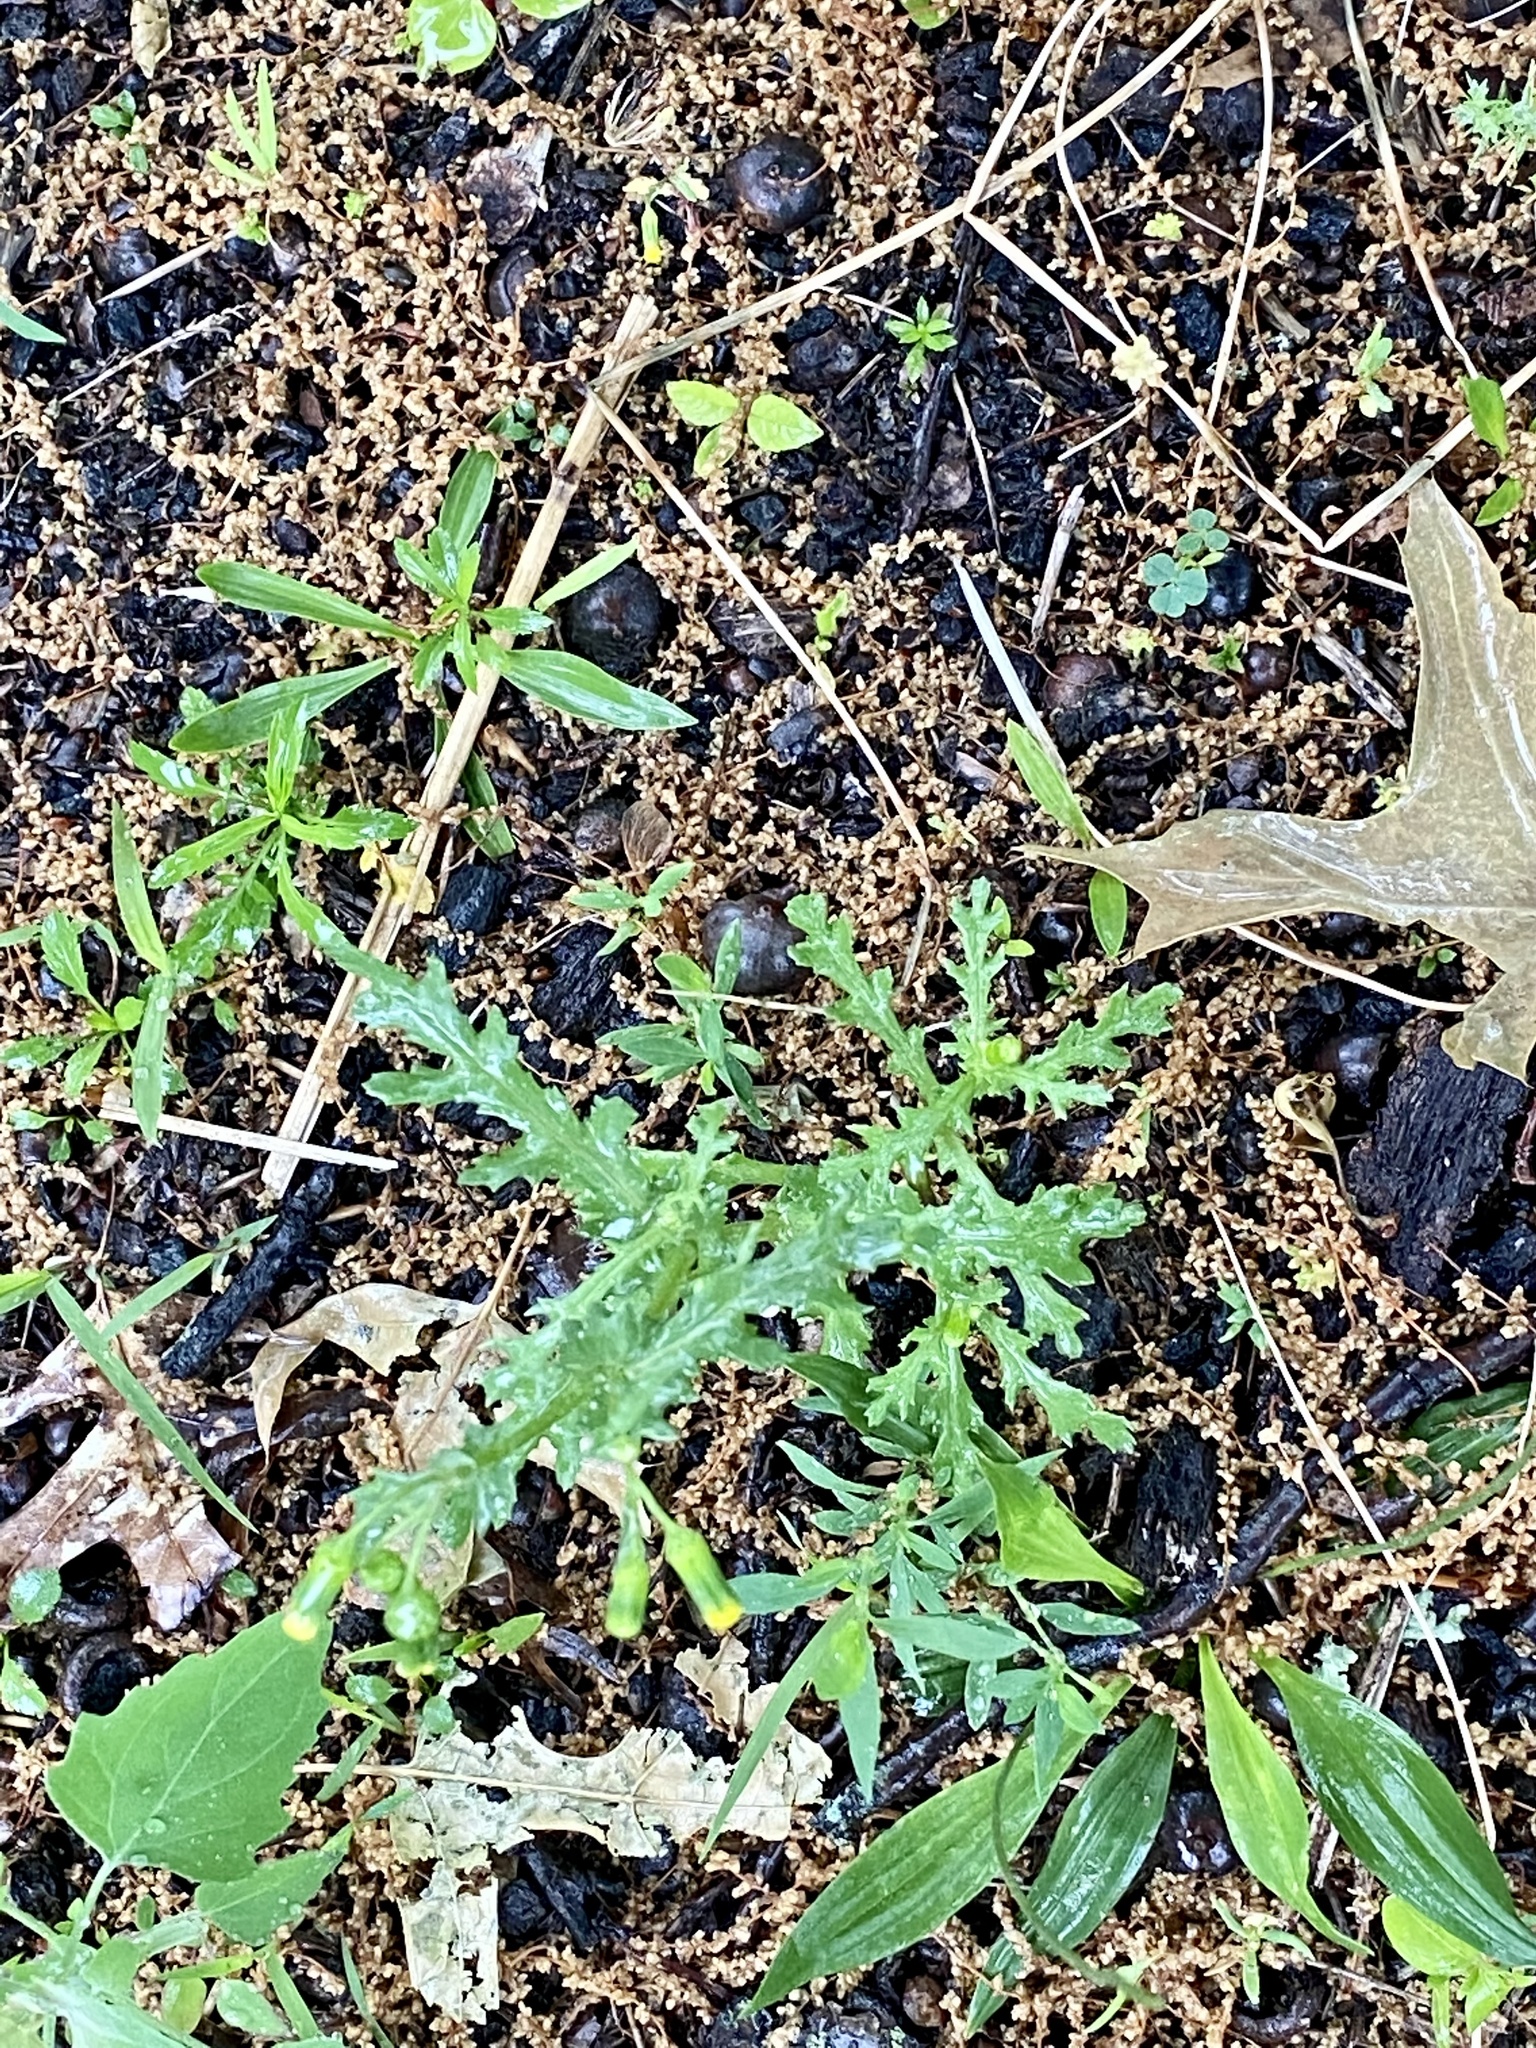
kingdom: Plantae
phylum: Tracheophyta
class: Magnoliopsida
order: Asterales
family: Asteraceae
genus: Senecio
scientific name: Senecio vulgaris
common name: Old-man-in-the-spring
